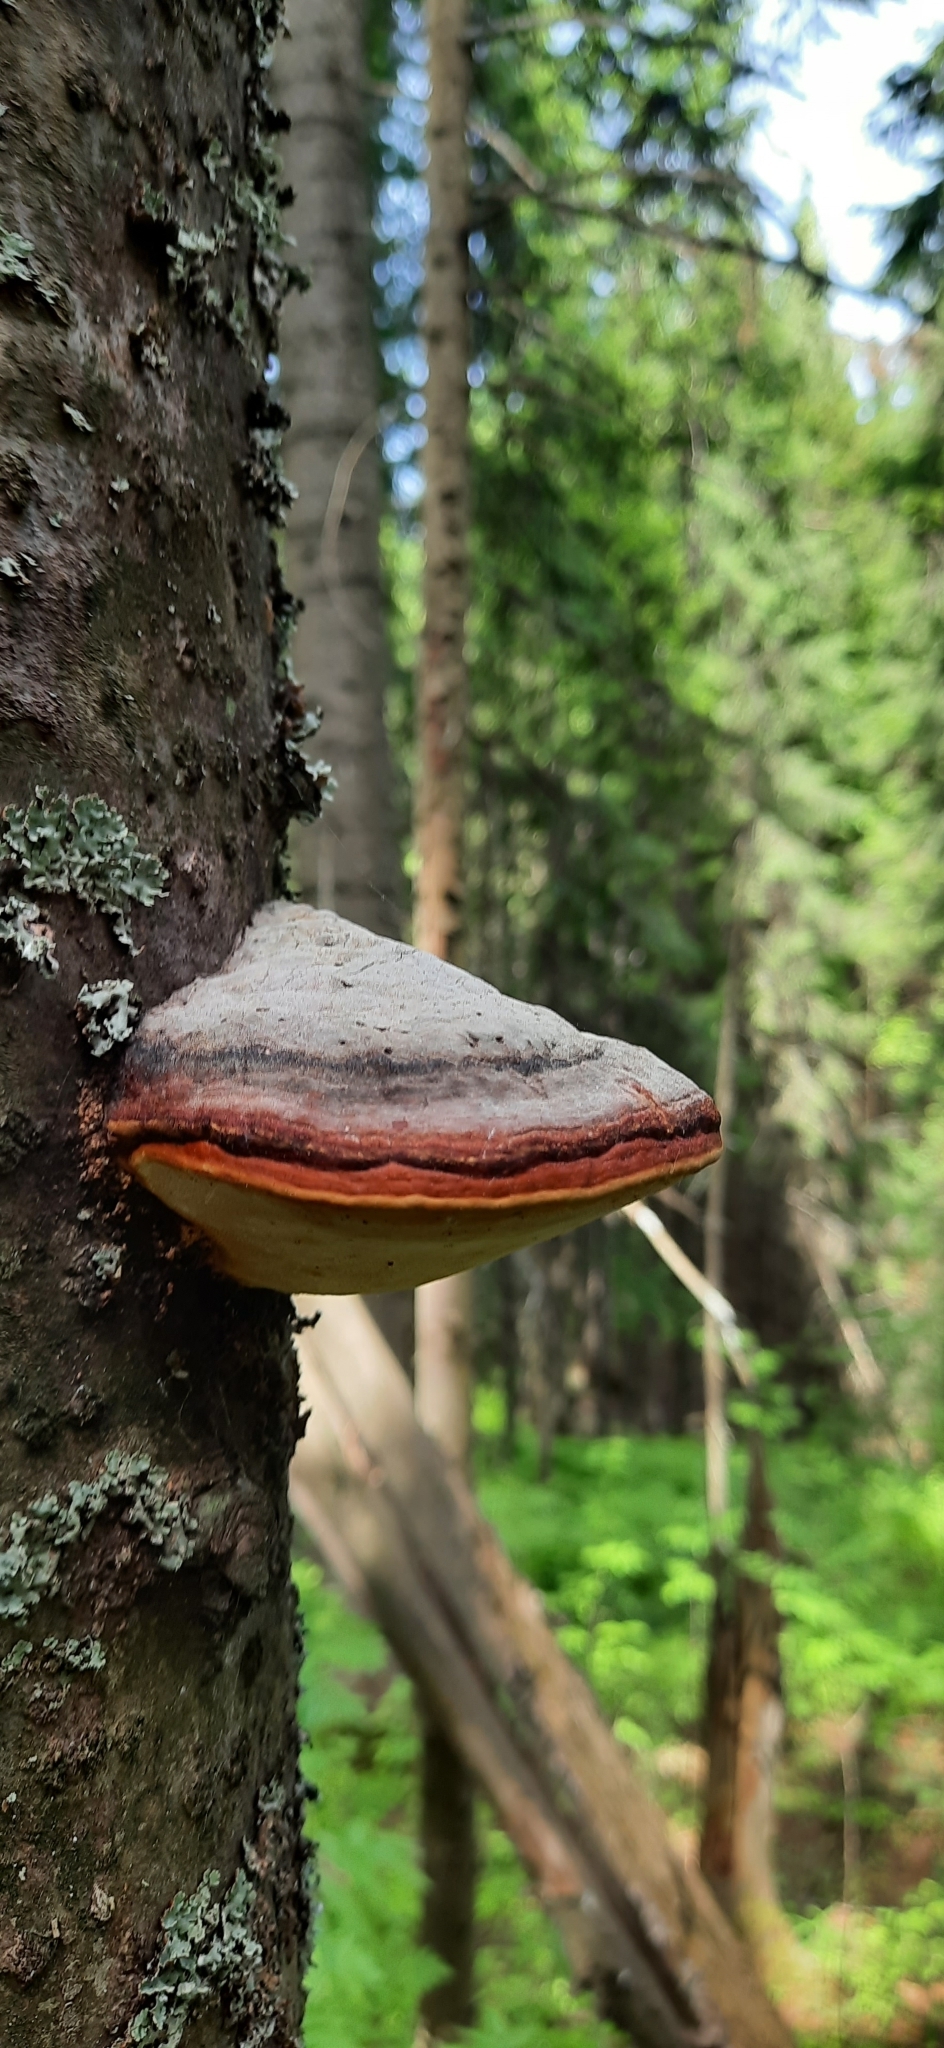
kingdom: Fungi
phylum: Basidiomycota
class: Agaricomycetes
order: Polyporales
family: Fomitopsidaceae
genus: Fomitopsis
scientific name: Fomitopsis pinicola
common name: Red-belted bracket
